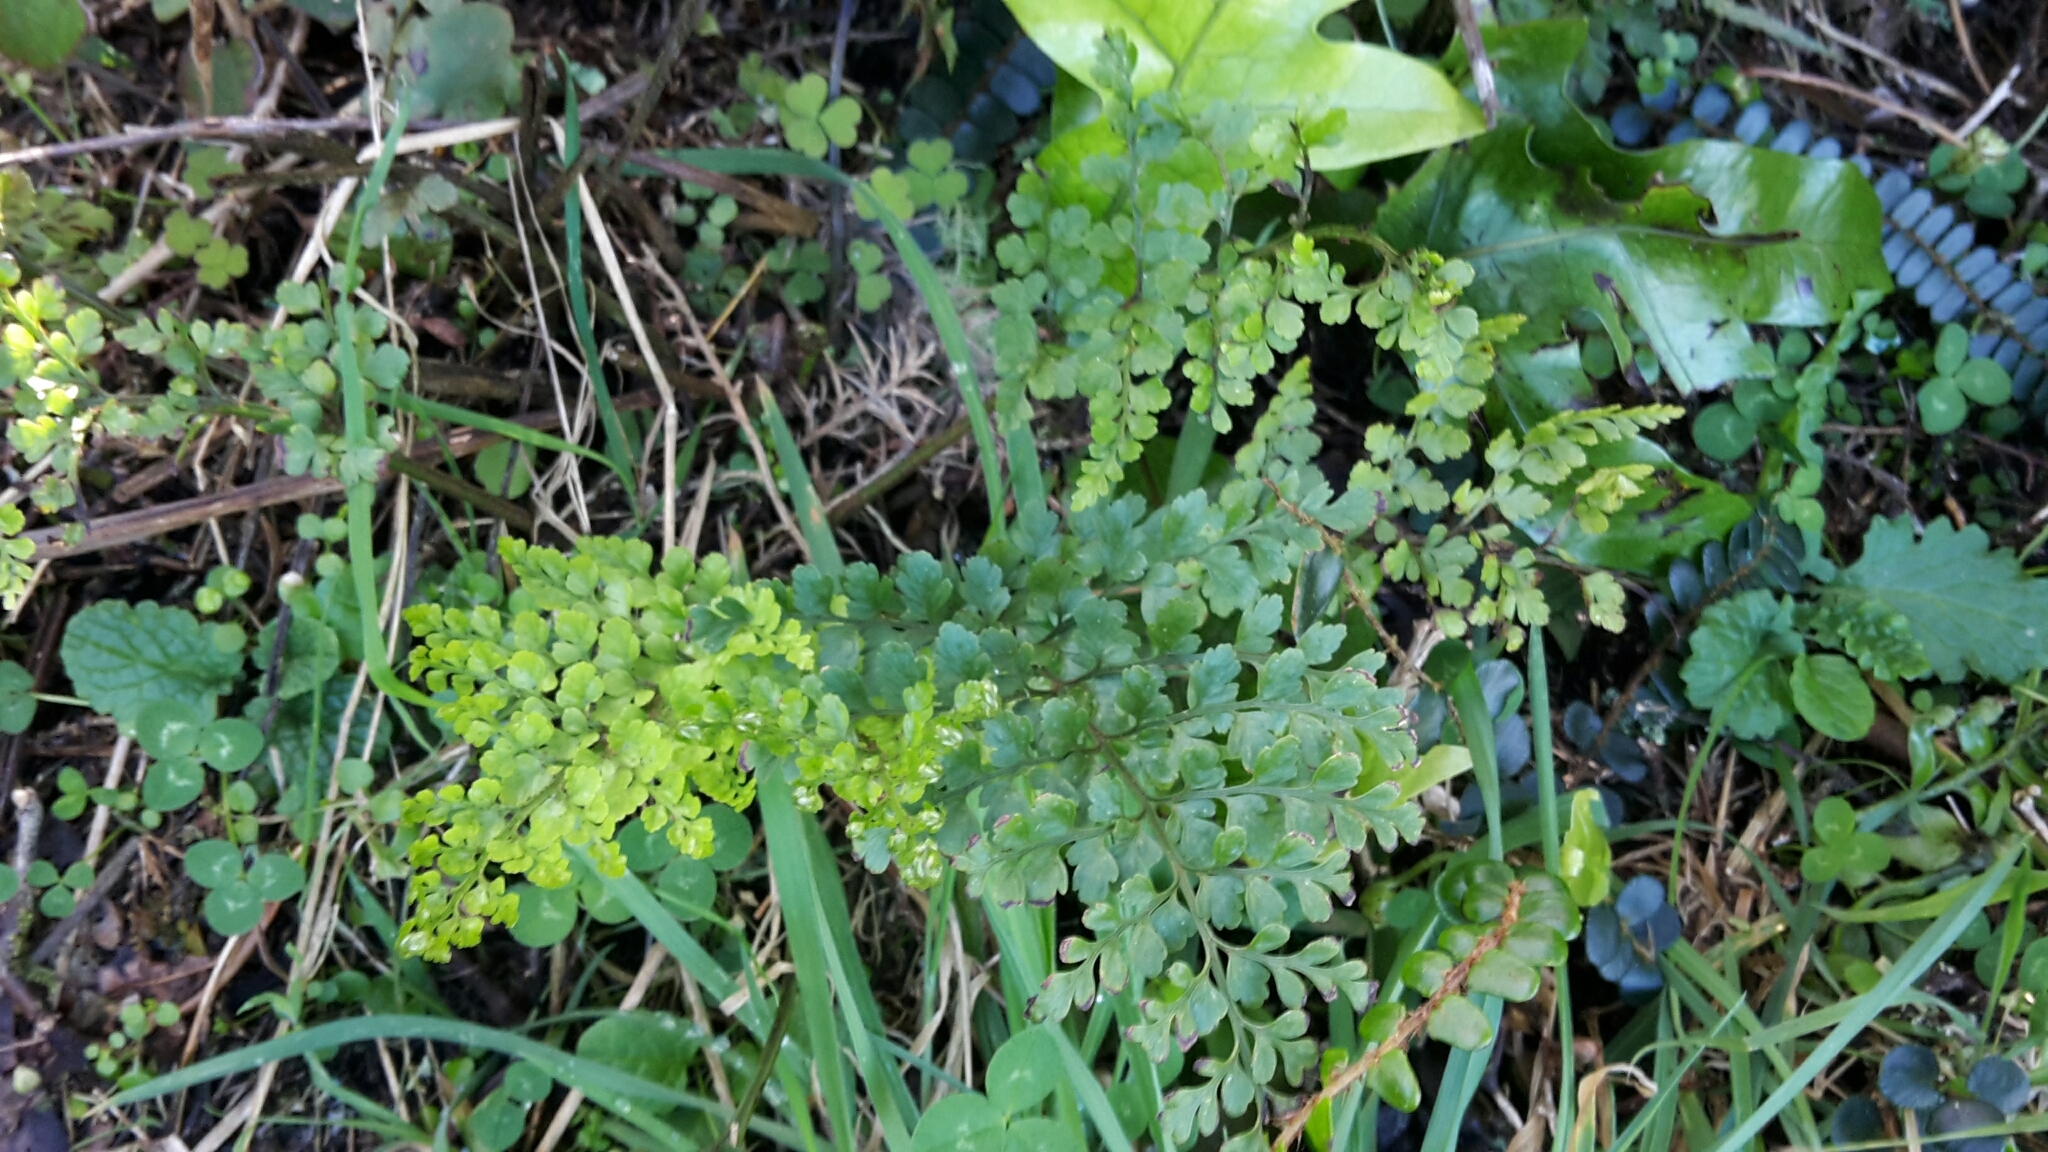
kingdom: Plantae
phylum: Tracheophyta
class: Polypodiopsida
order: Polypodiales
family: Aspleniaceae
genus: Asplenium
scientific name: Asplenium hookerianum
